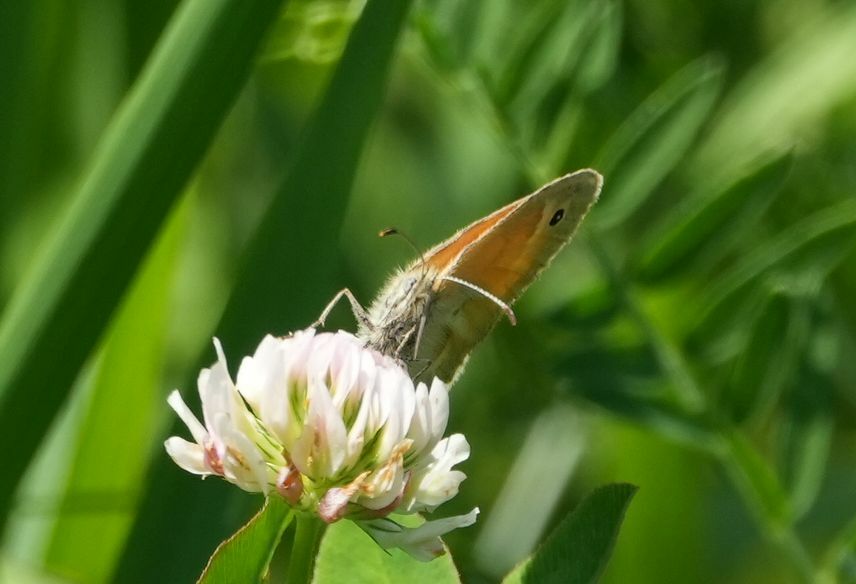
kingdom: Animalia
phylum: Arthropoda
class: Insecta
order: Lepidoptera
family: Nymphalidae
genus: Coenonympha
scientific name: Coenonympha california
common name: Common ringlet
